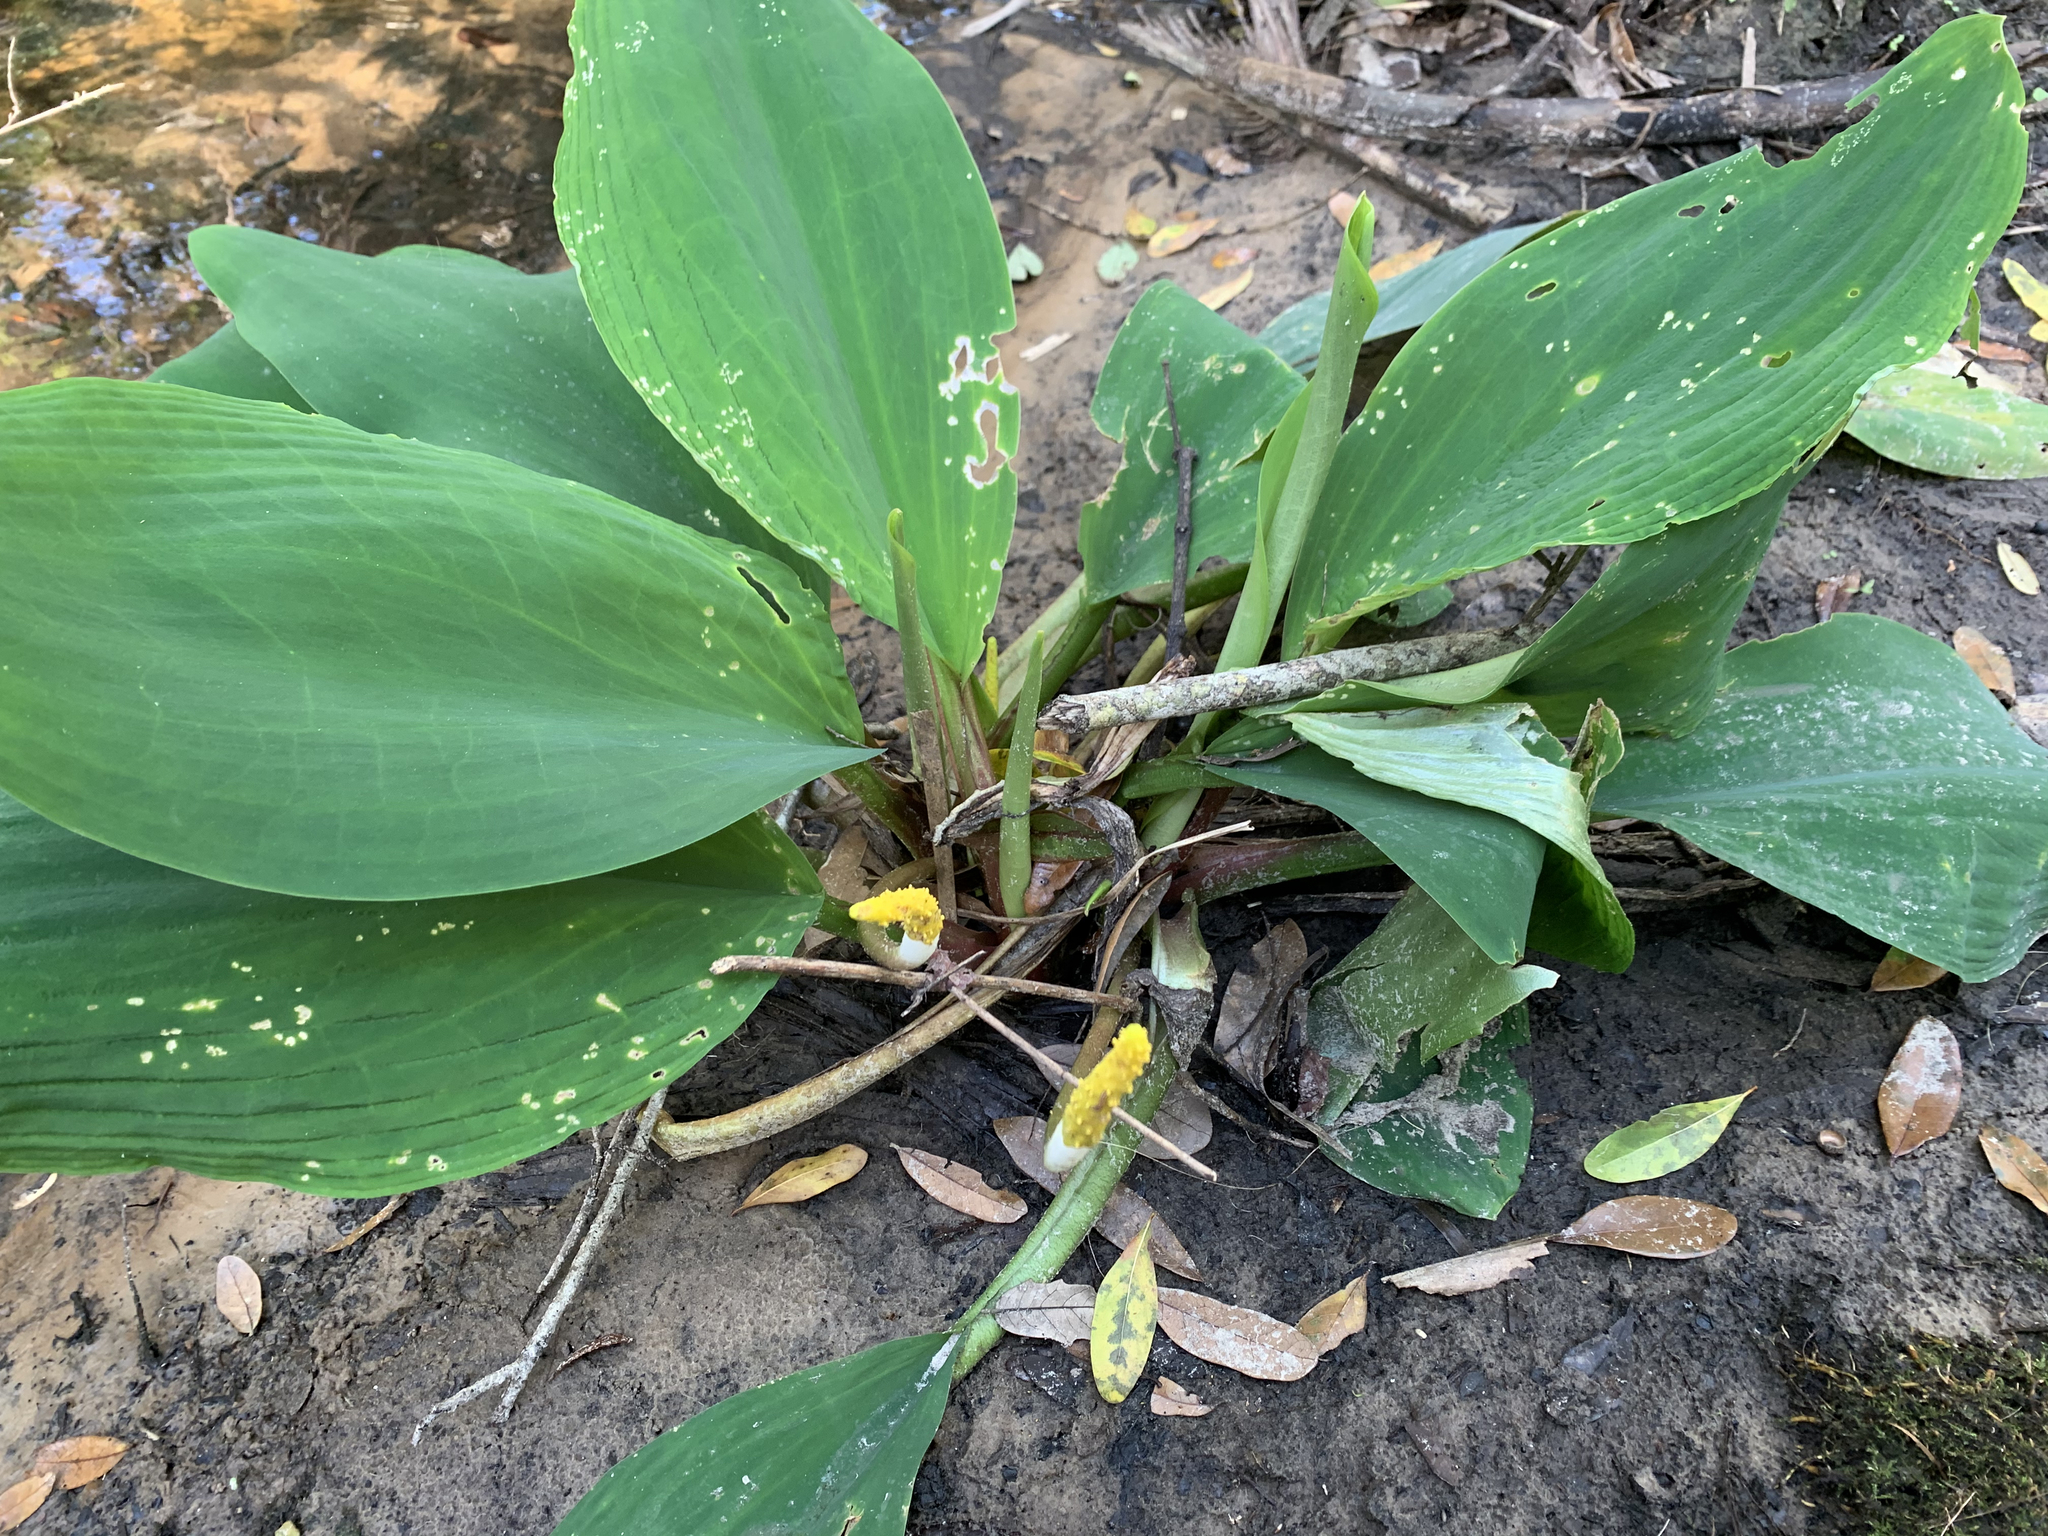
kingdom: Plantae
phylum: Tracheophyta
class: Liliopsida
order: Alismatales
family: Araceae
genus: Orontium
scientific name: Orontium aquaticum
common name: Golden-club
